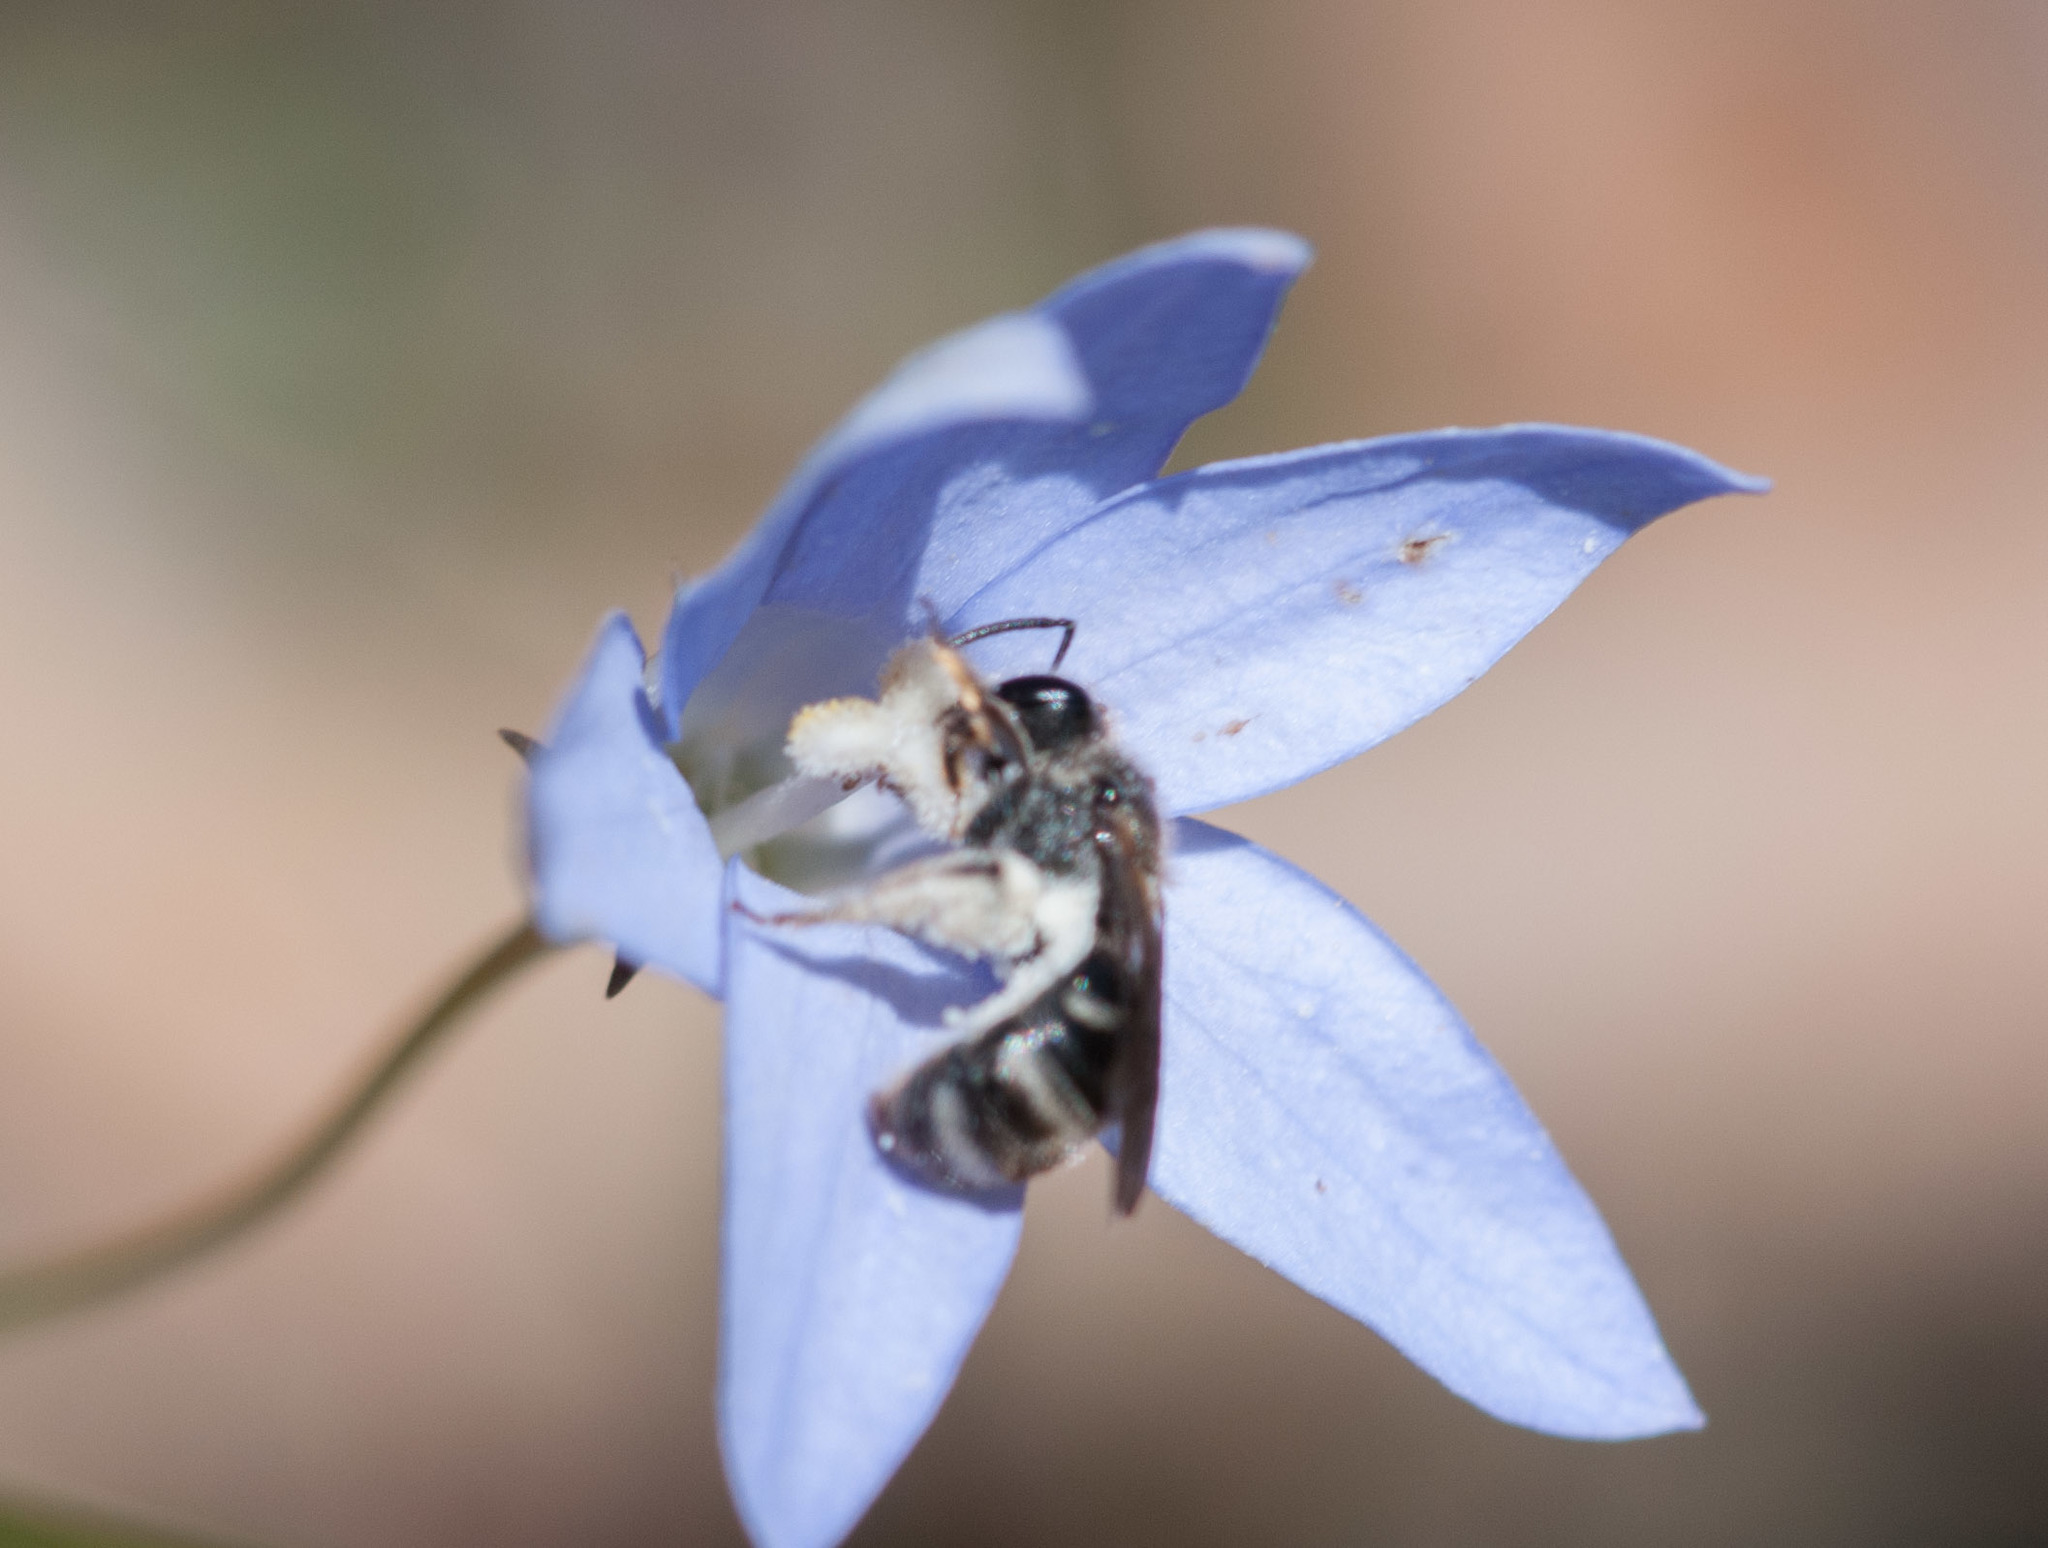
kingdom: Animalia
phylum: Arthropoda
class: Insecta
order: Hymenoptera
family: Halictidae
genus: Lasioglossum
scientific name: Lasioglossum lanarium
